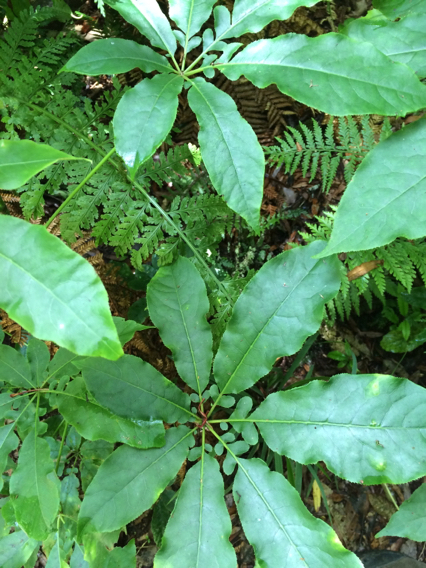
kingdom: Plantae
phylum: Tracheophyta
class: Magnoliopsida
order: Apiales
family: Araliaceae
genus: Schefflera
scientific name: Schefflera digitata
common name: Pate
